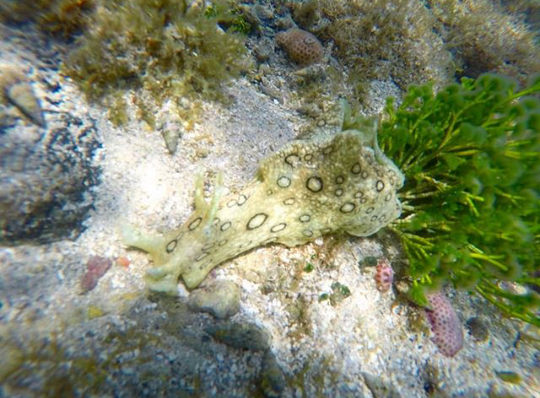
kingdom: Animalia
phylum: Mollusca
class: Gastropoda
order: Aplysiida
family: Aplysiidae
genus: Aplysia
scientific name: Aplysia dactylomela
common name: Large-spotted sea hare
